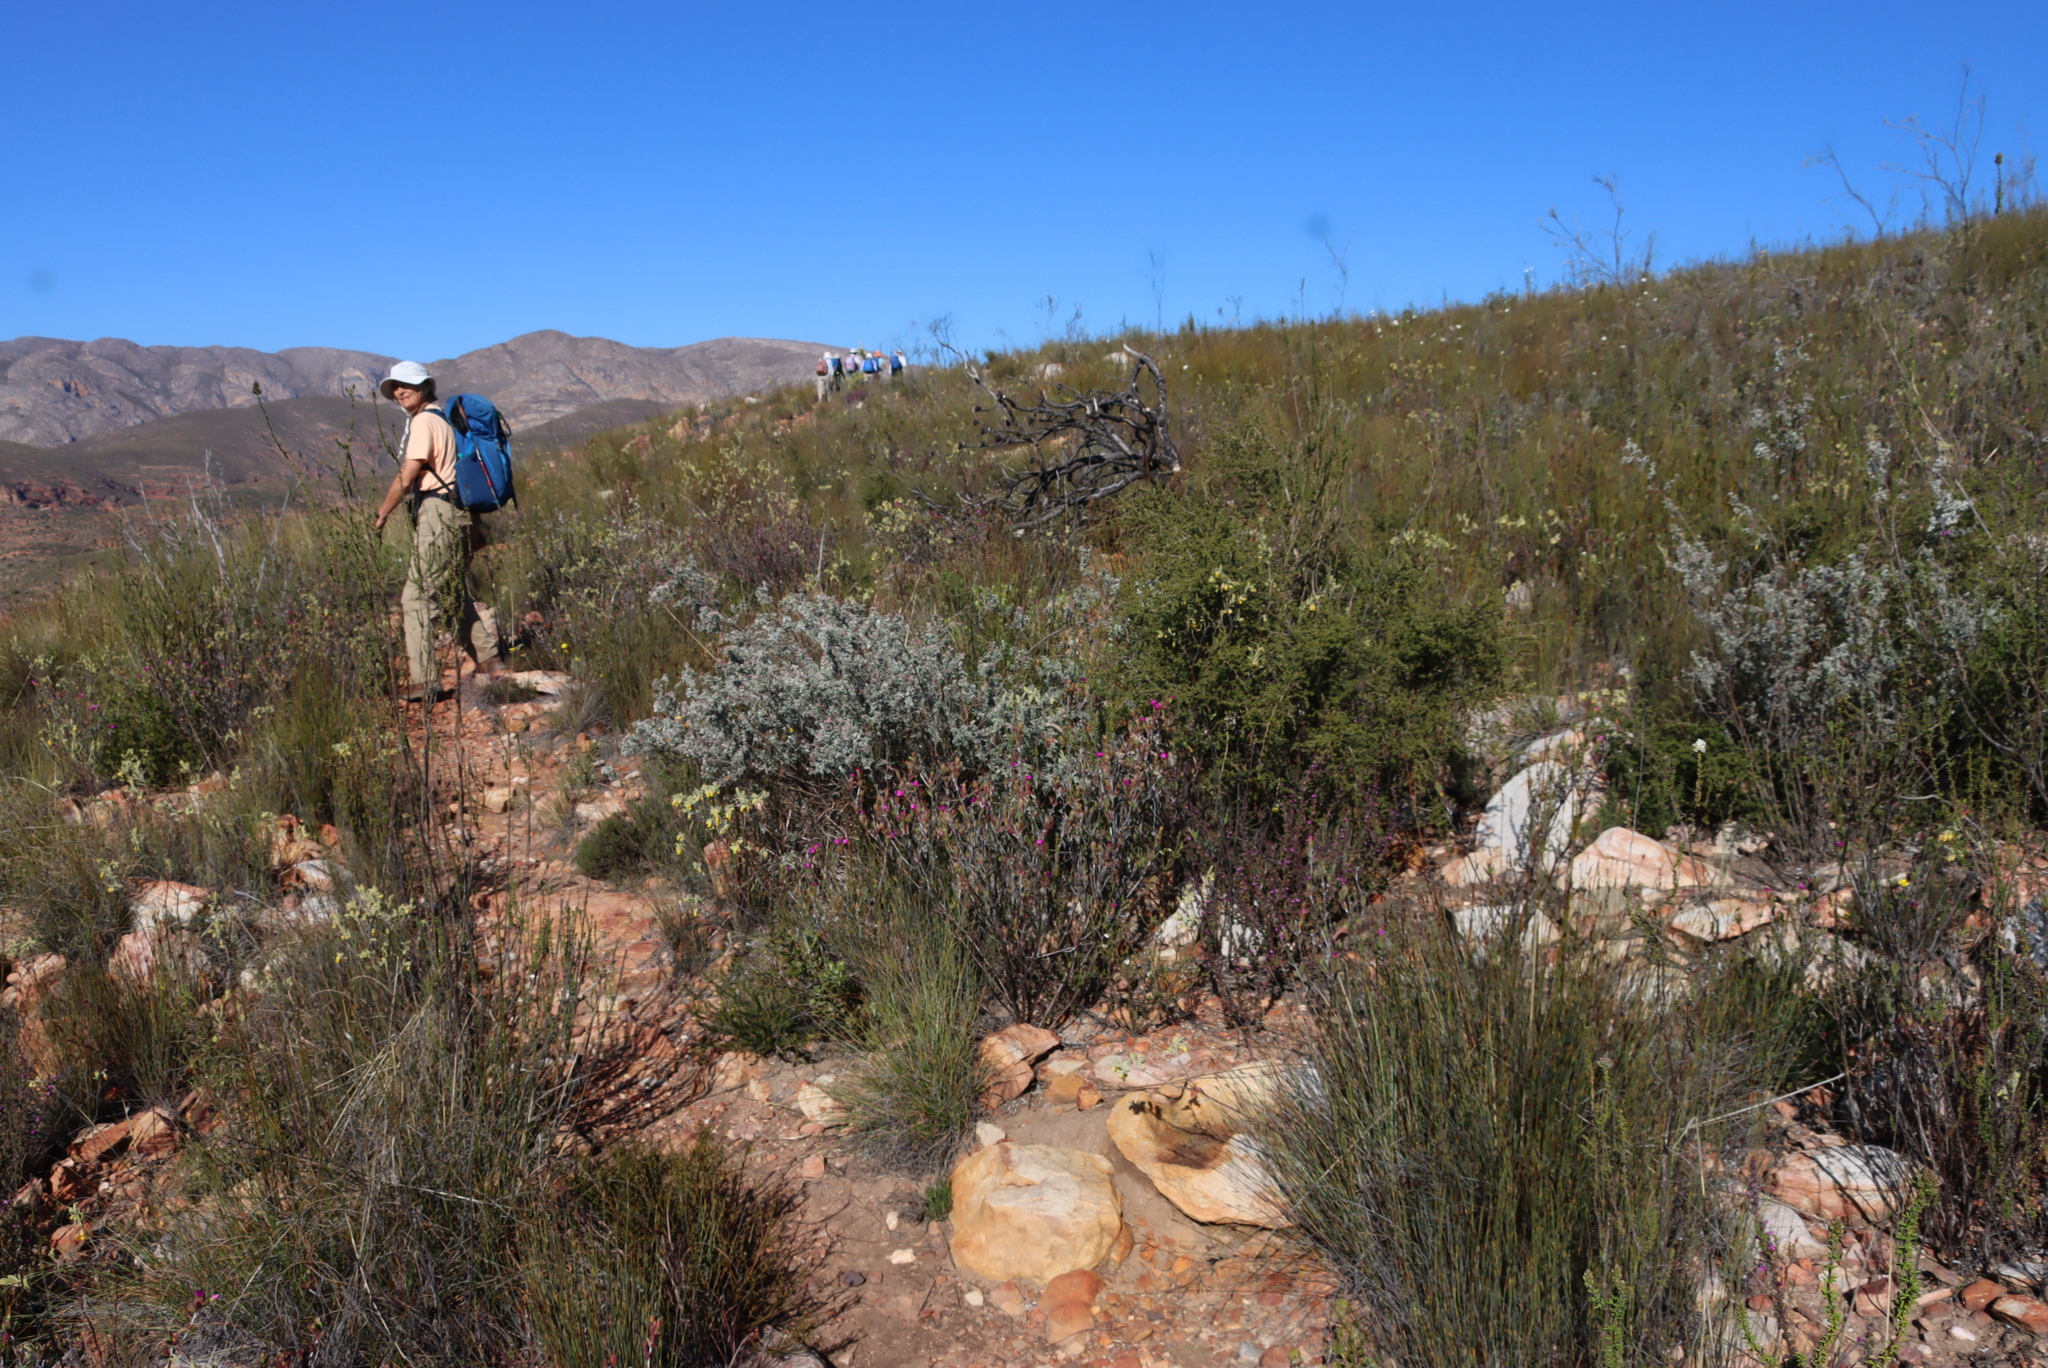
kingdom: Plantae
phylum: Tracheophyta
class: Magnoliopsida
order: Fabales
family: Fabaceae
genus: Argyrolobium
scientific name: Argyrolobium incanum
